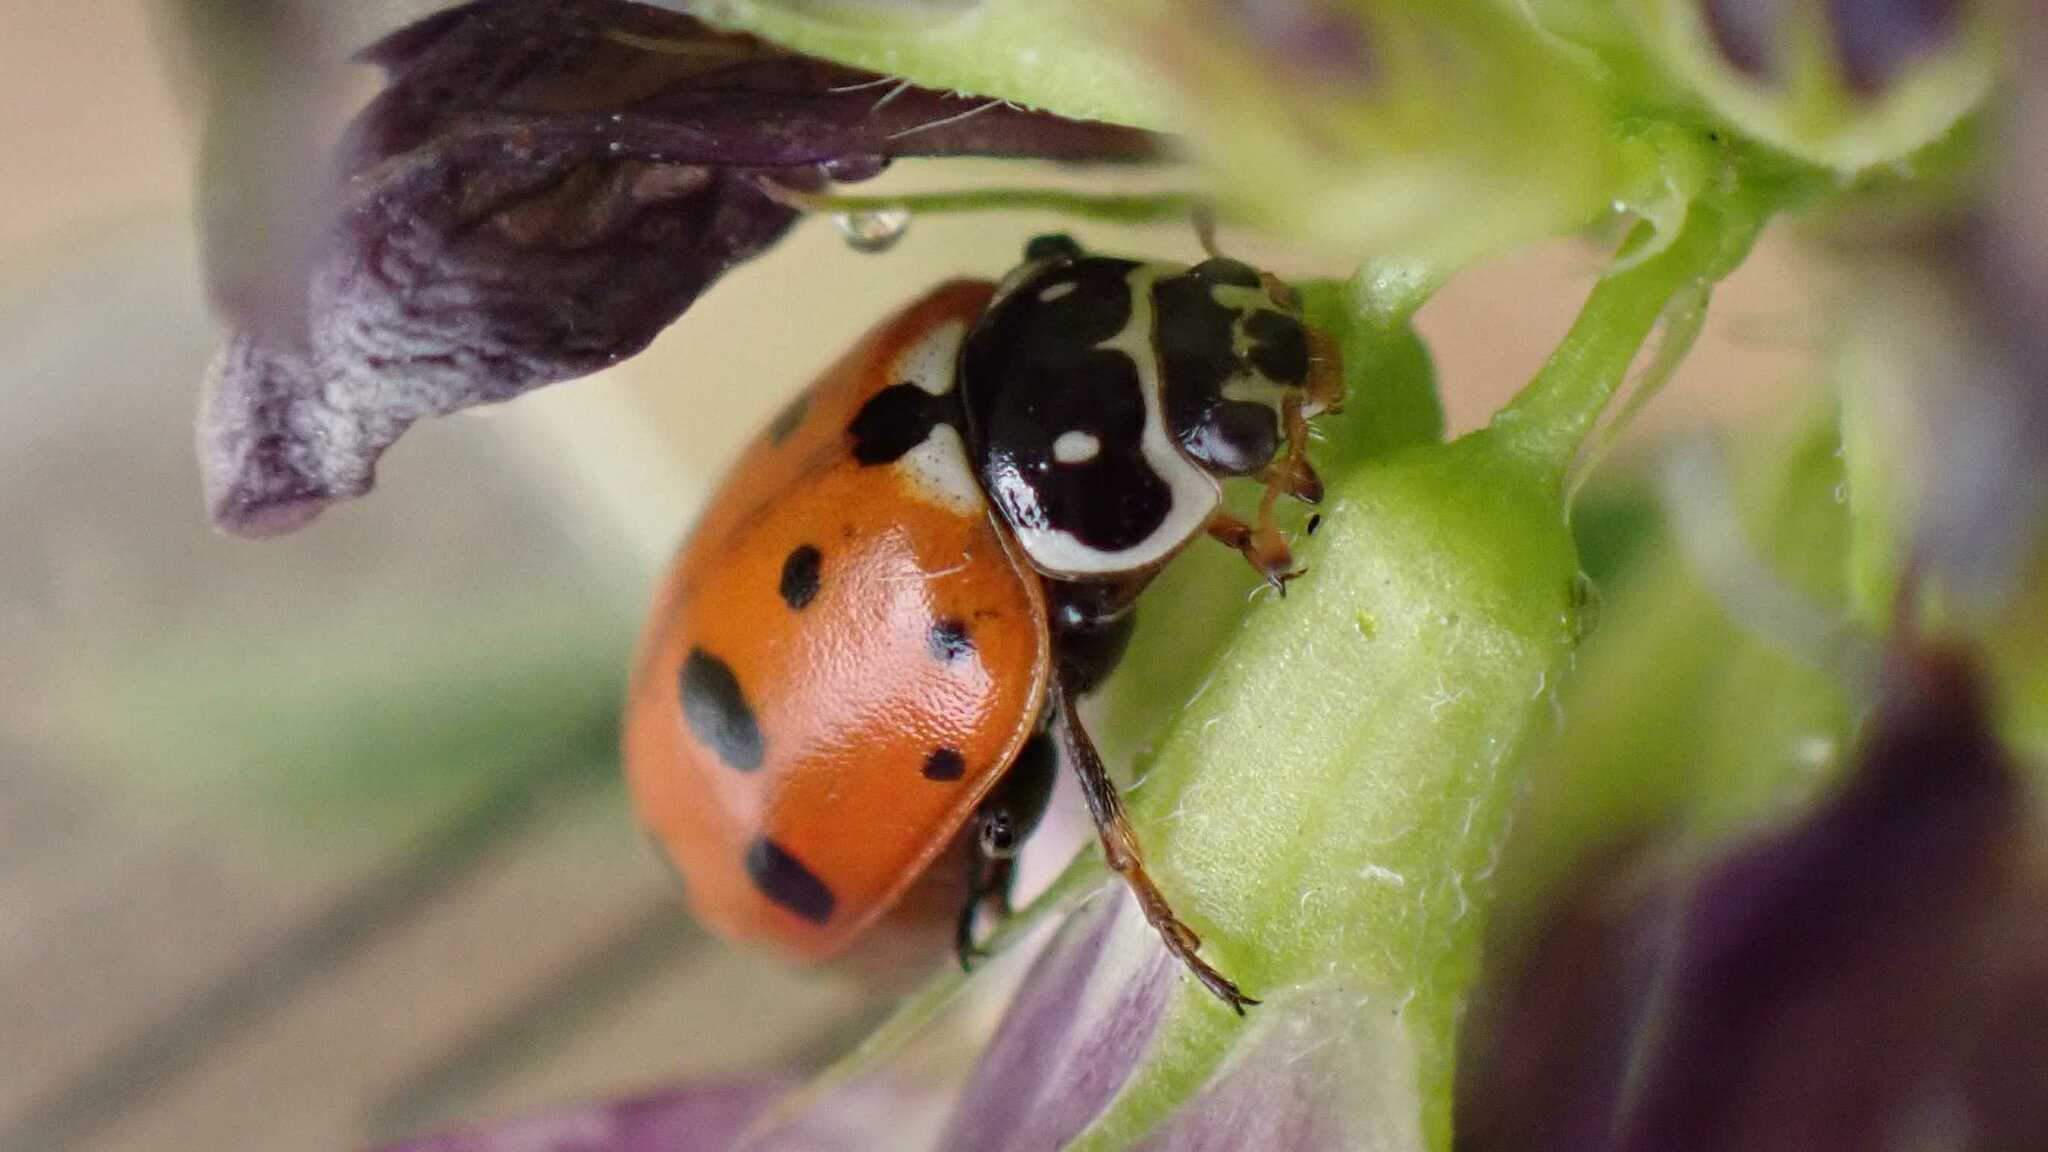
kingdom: Animalia
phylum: Arthropoda
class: Insecta
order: Coleoptera
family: Coccinellidae
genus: Hippodamia
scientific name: Hippodamia variegata
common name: Ladybird beetle
